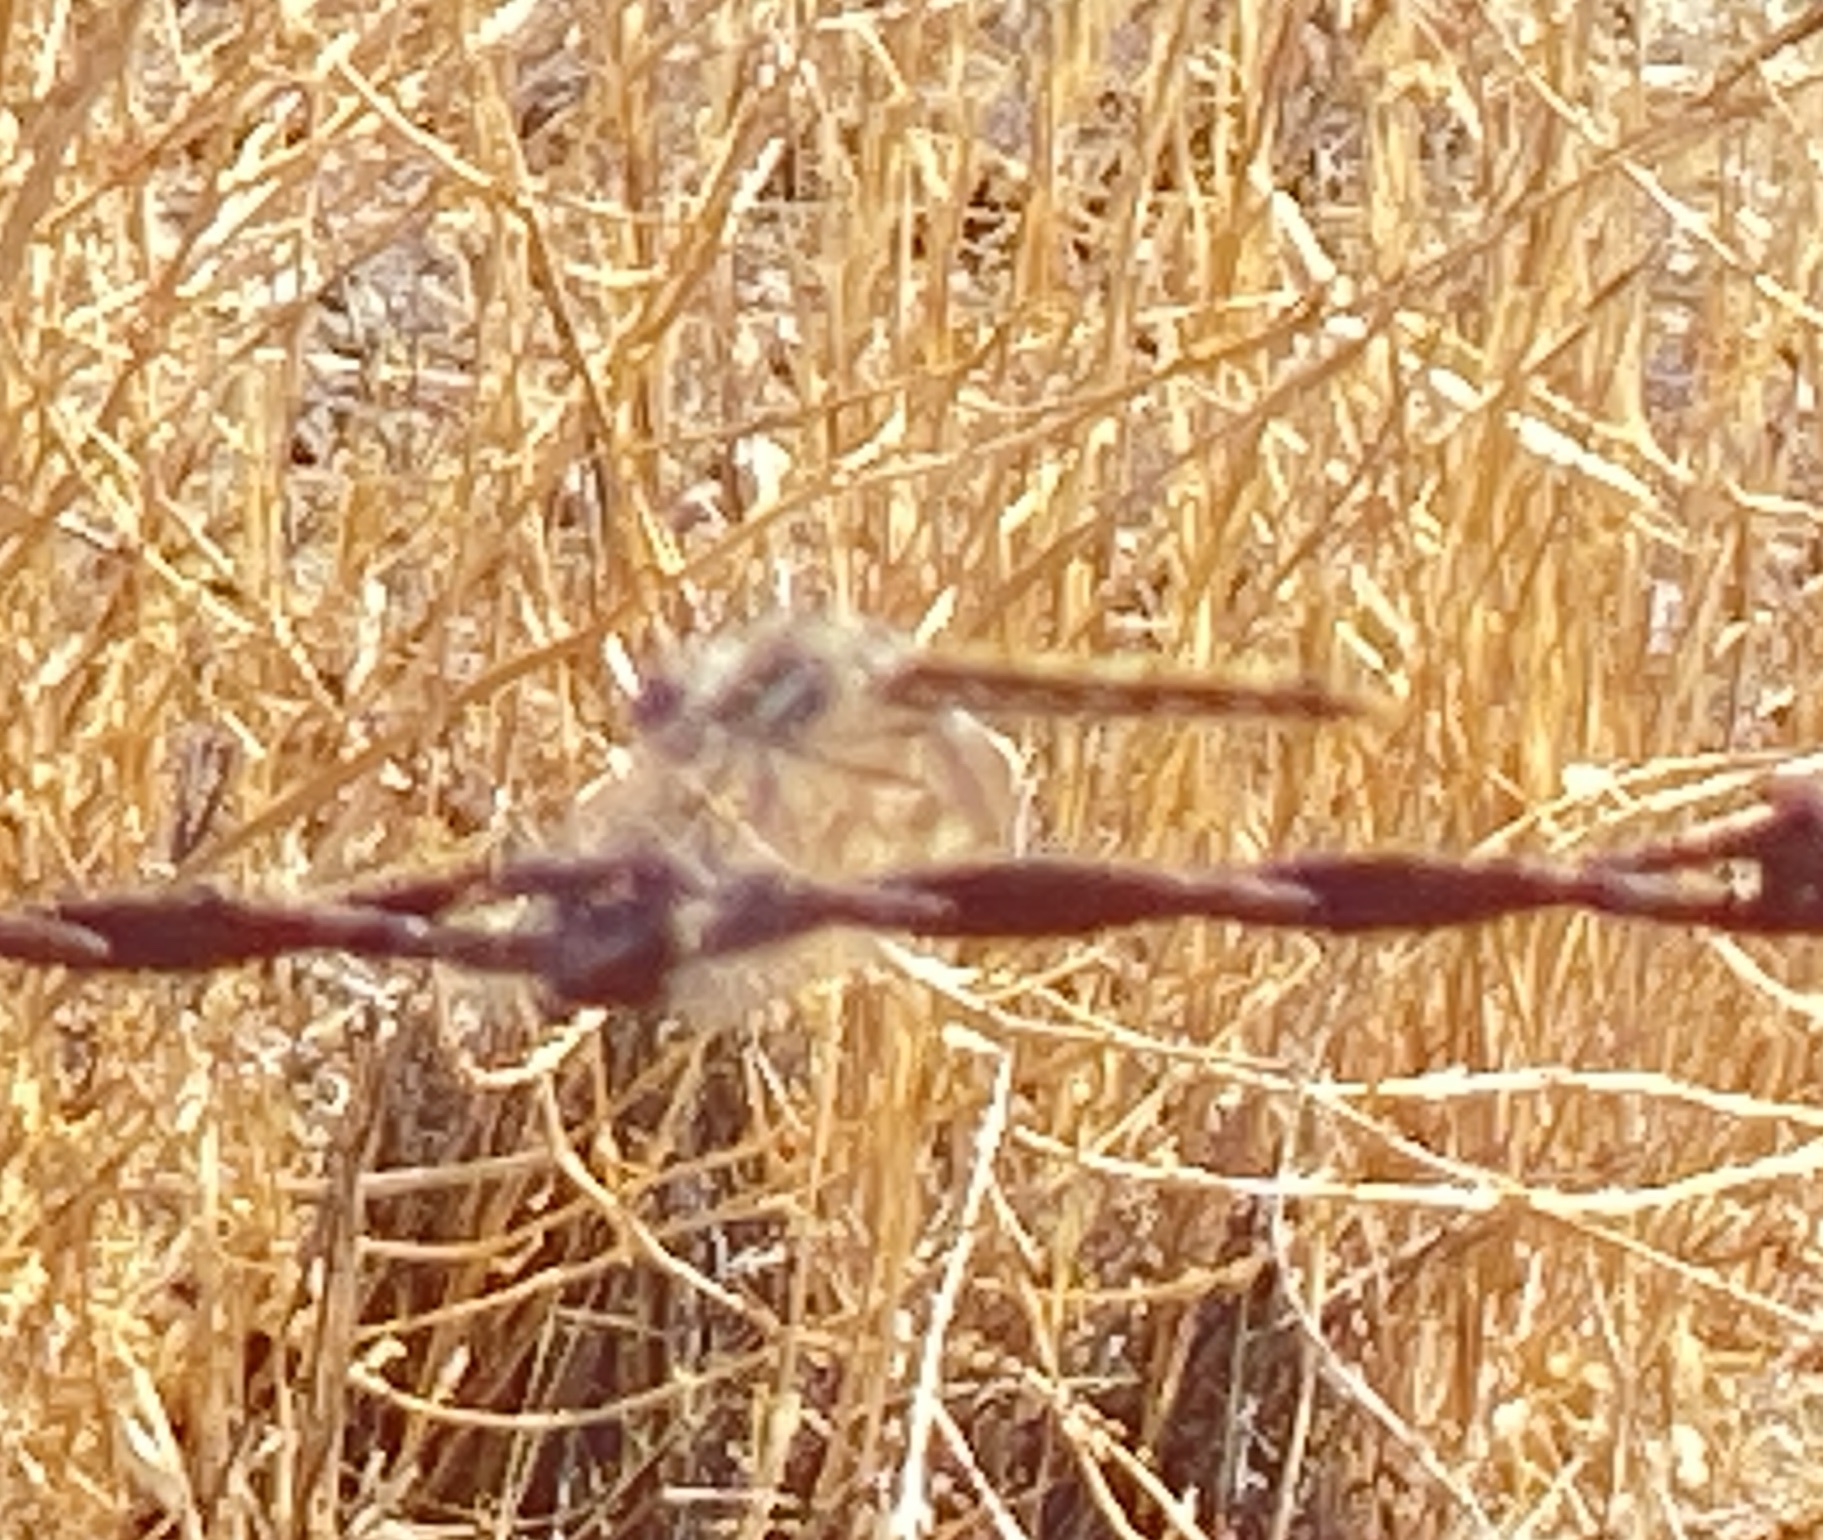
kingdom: Animalia
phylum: Arthropoda
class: Insecta
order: Odonata
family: Libellulidae
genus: Sympetrum
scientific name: Sympetrum corruptum
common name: Variegated meadowhawk
